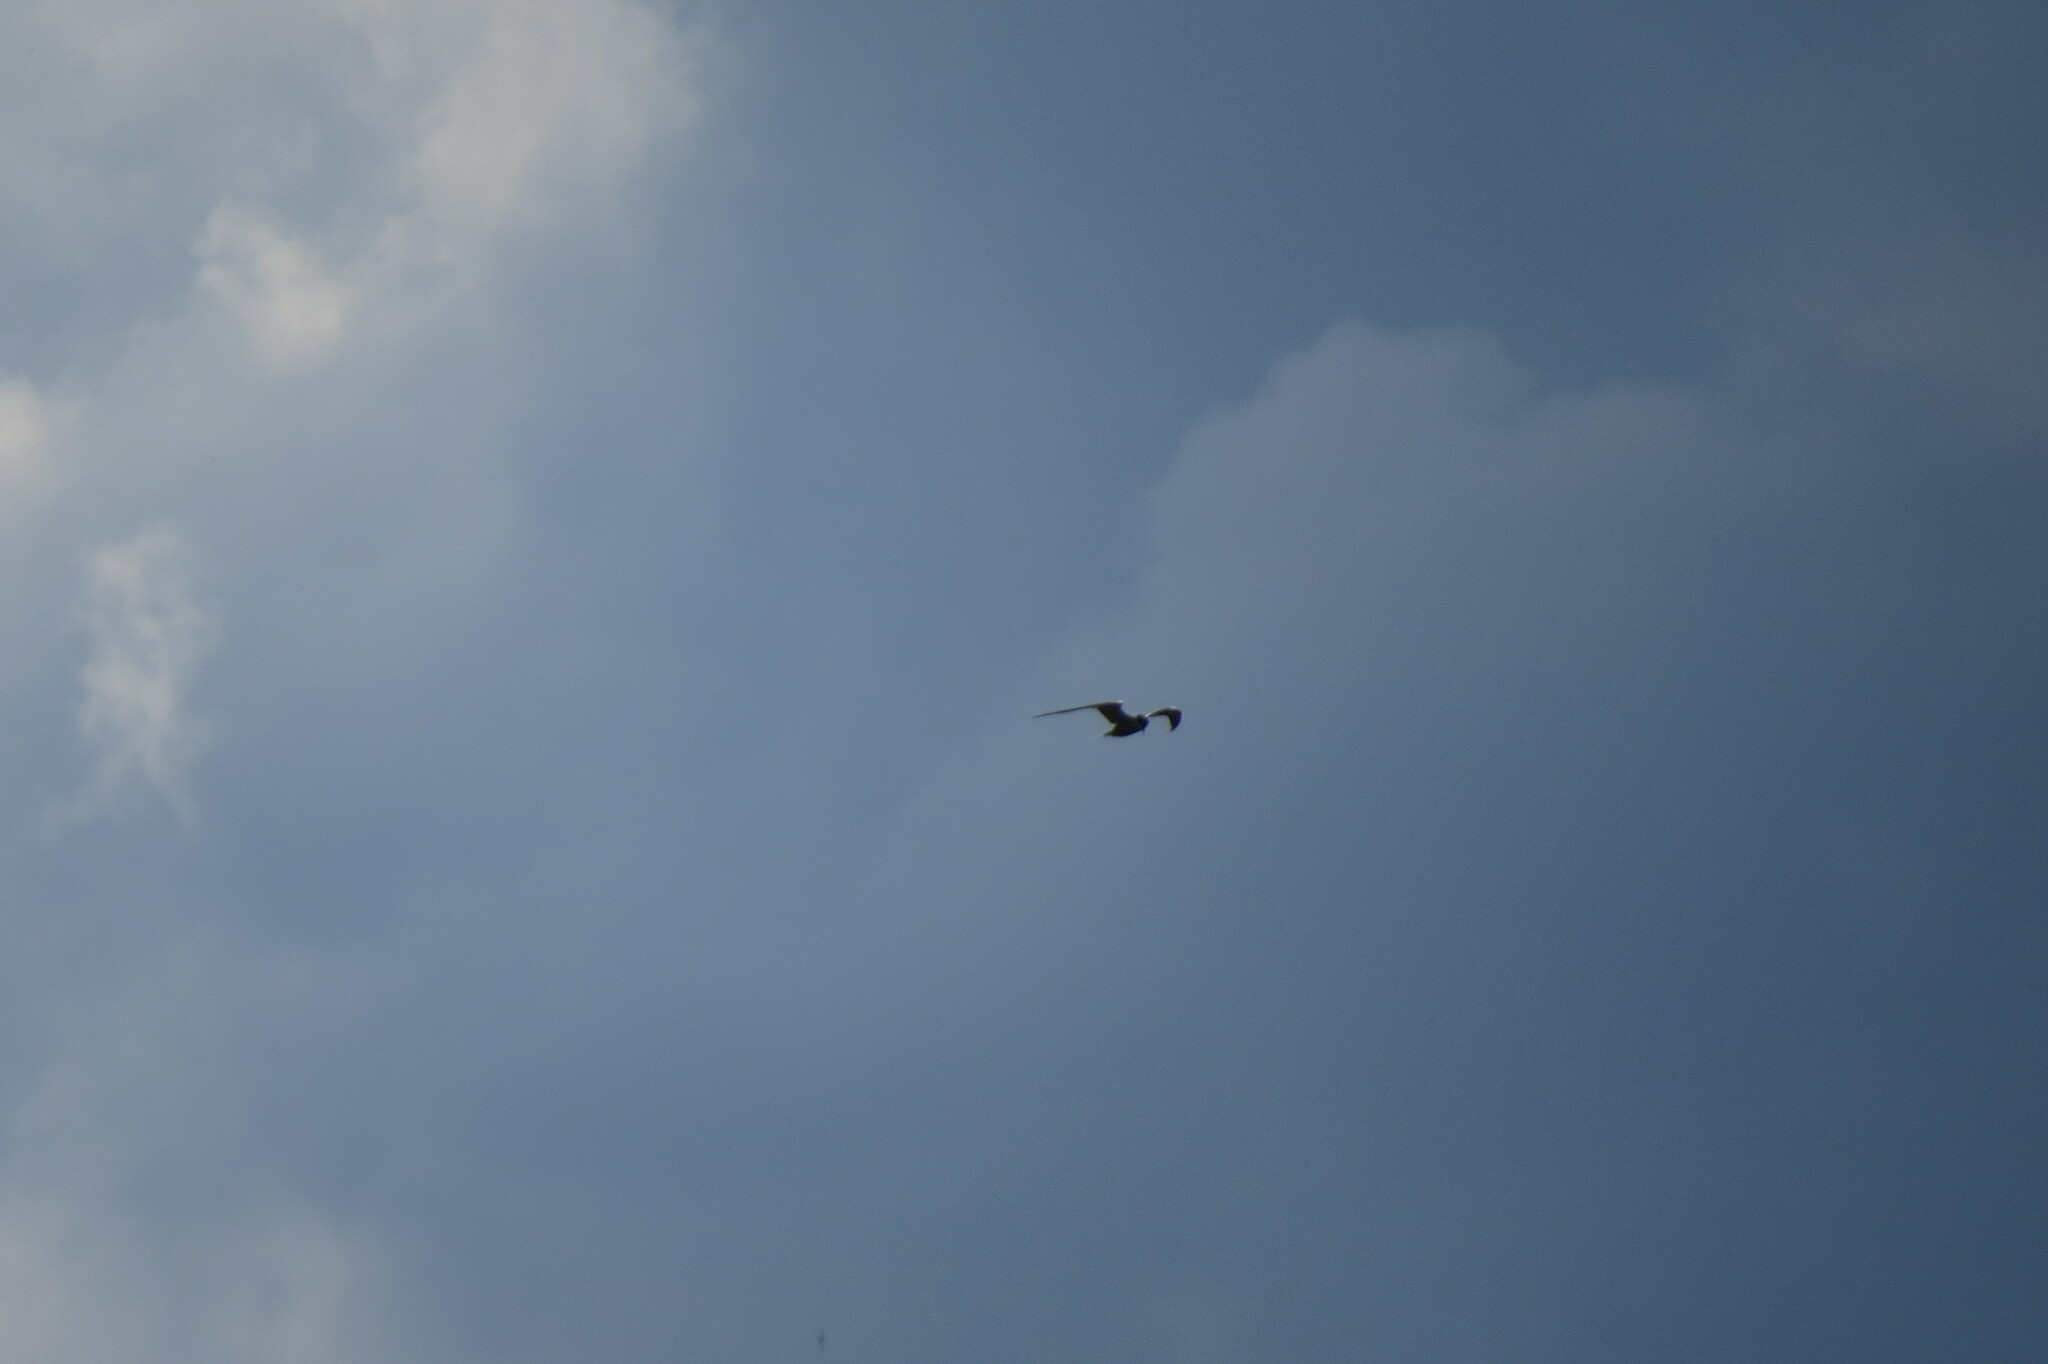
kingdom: Animalia
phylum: Chordata
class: Aves
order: Charadriiformes
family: Laridae
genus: Sterna
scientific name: Sterna hirundo
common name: Common tern
